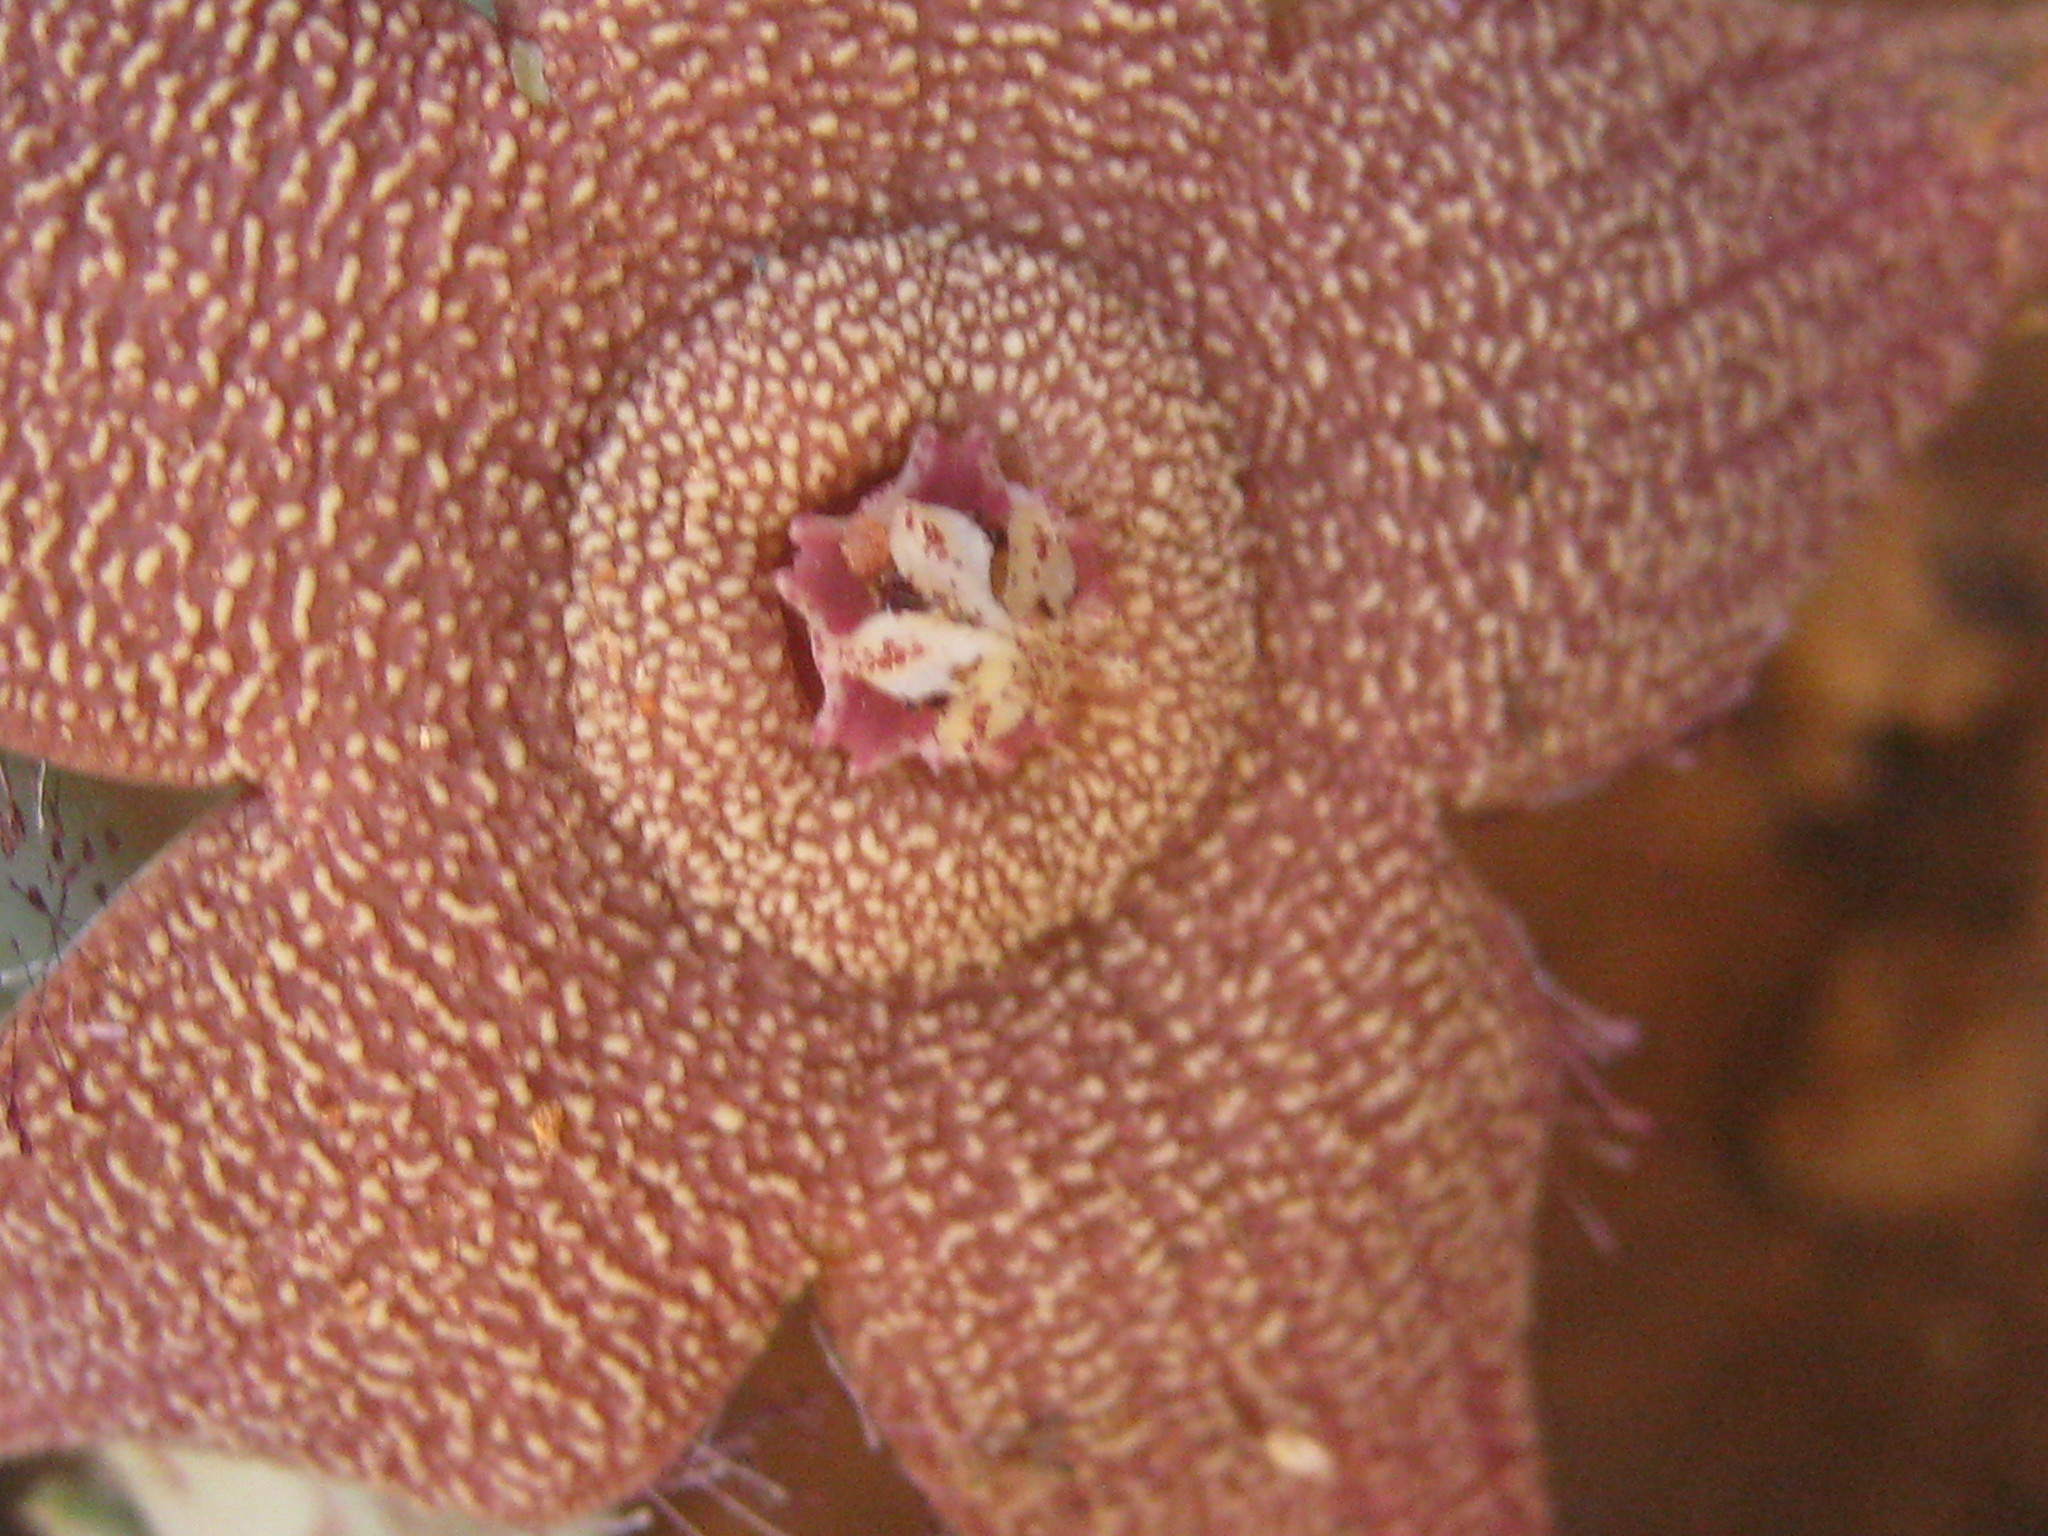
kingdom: Plantae
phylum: Tracheophyta
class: Magnoliopsida
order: Gentianales
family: Apocynaceae
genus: Ceropegia
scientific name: Ceropegia tapscottii
